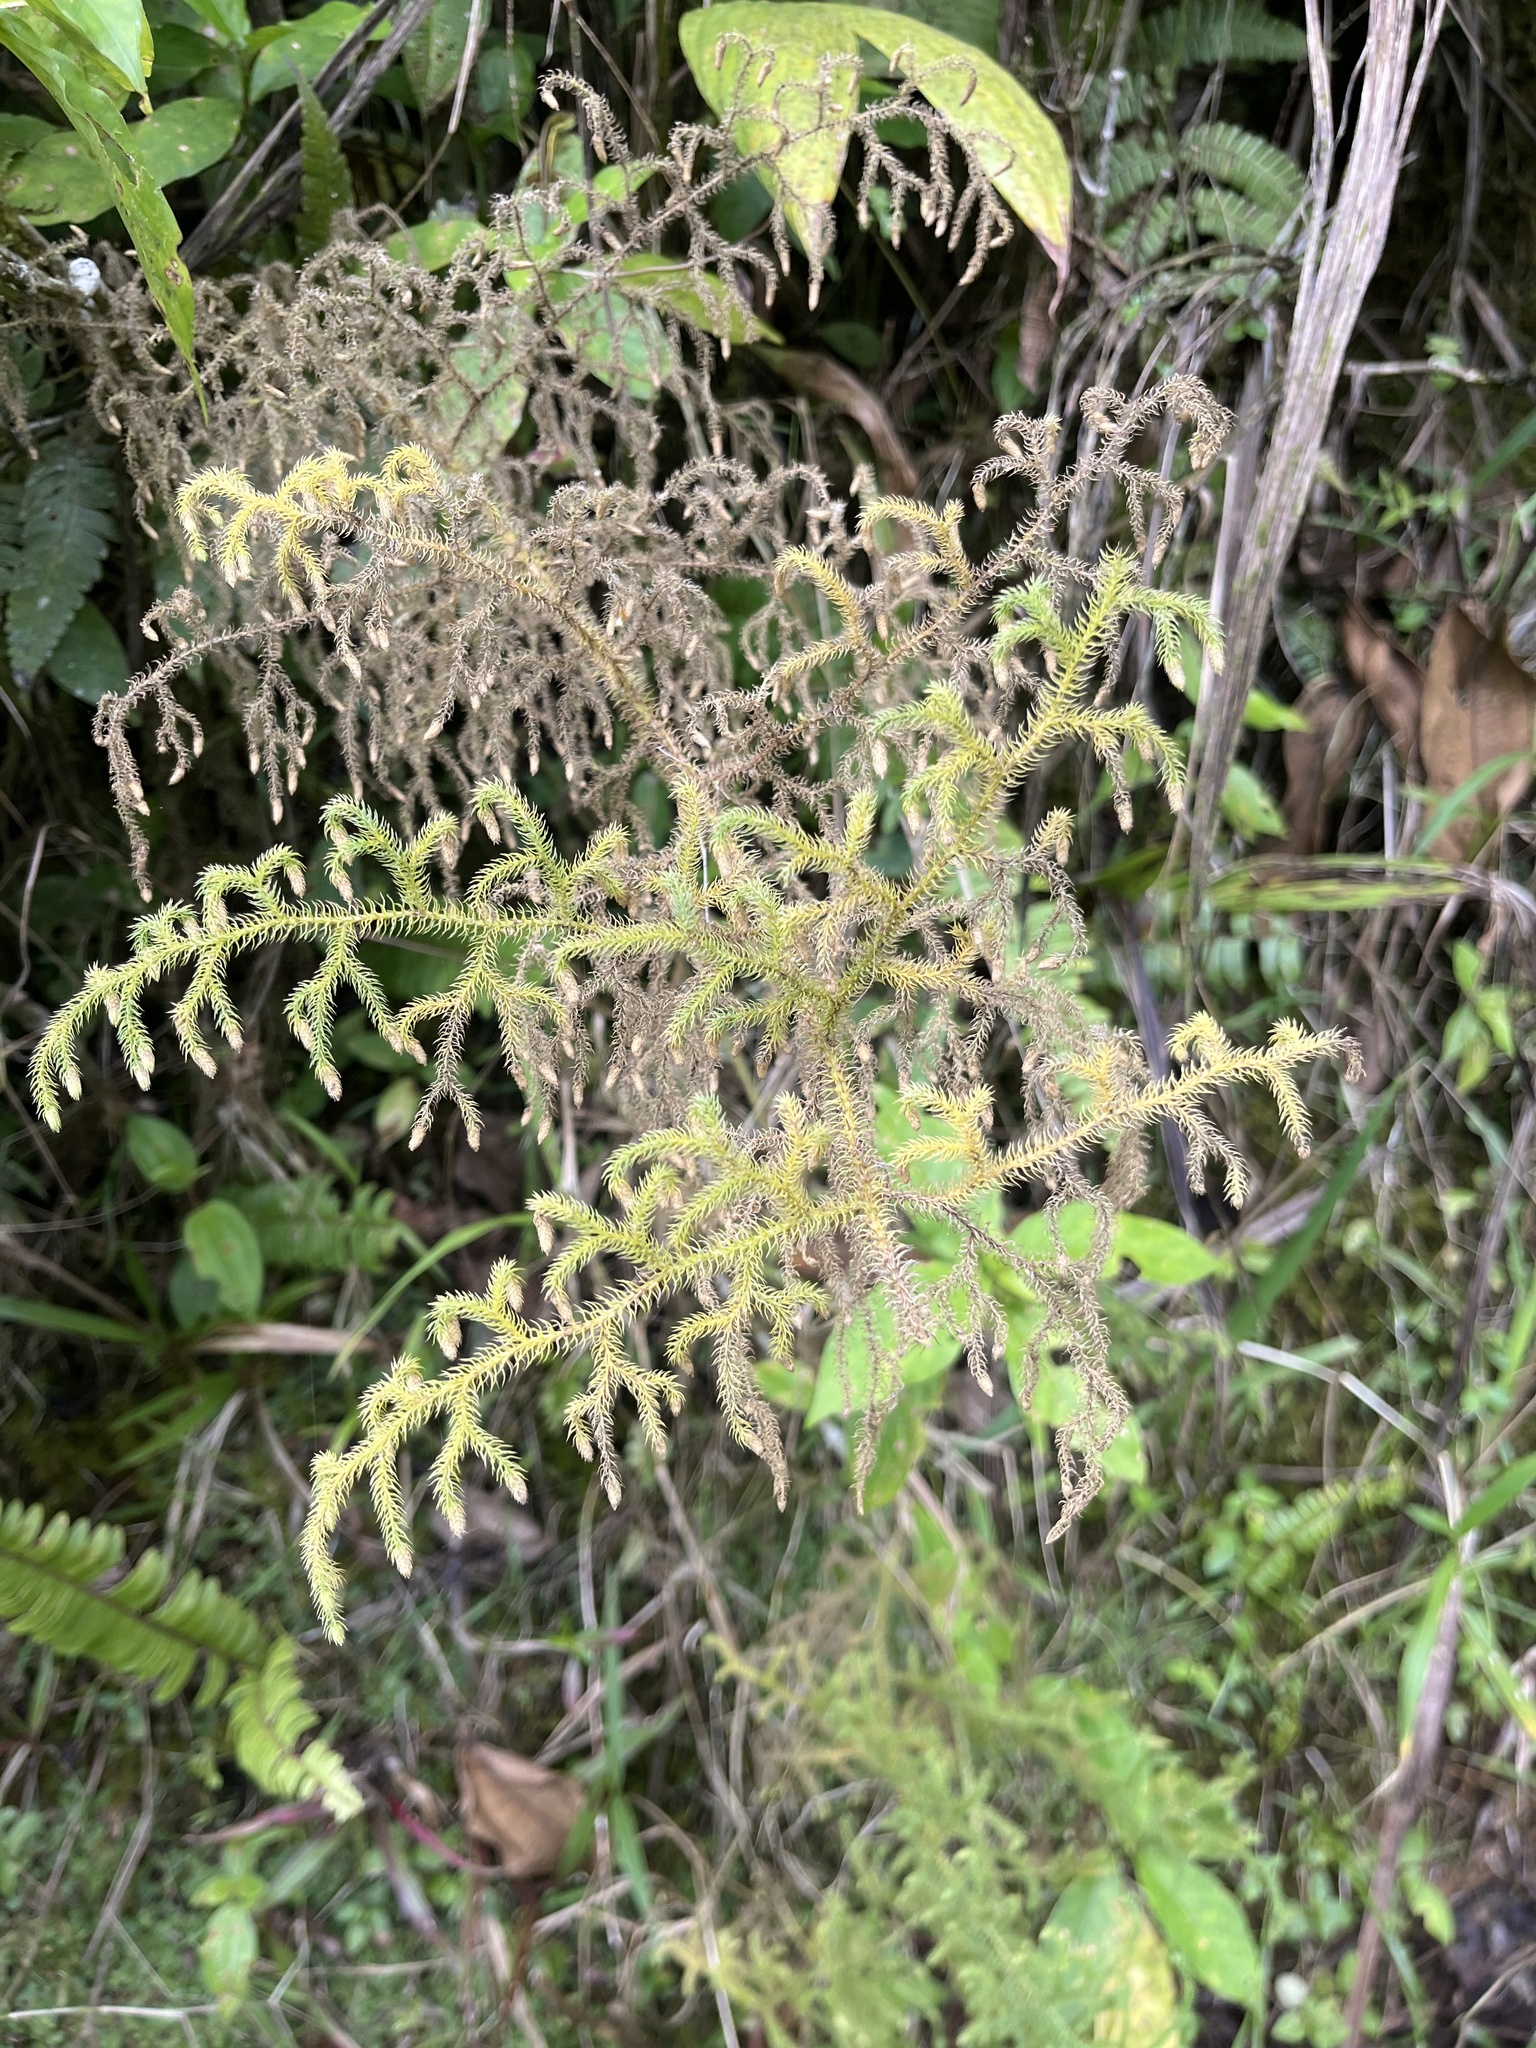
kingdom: Plantae
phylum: Tracheophyta
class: Lycopodiopsida
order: Lycopodiales
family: Lycopodiaceae
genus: Palhinhaea
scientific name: Palhinhaea cernua
